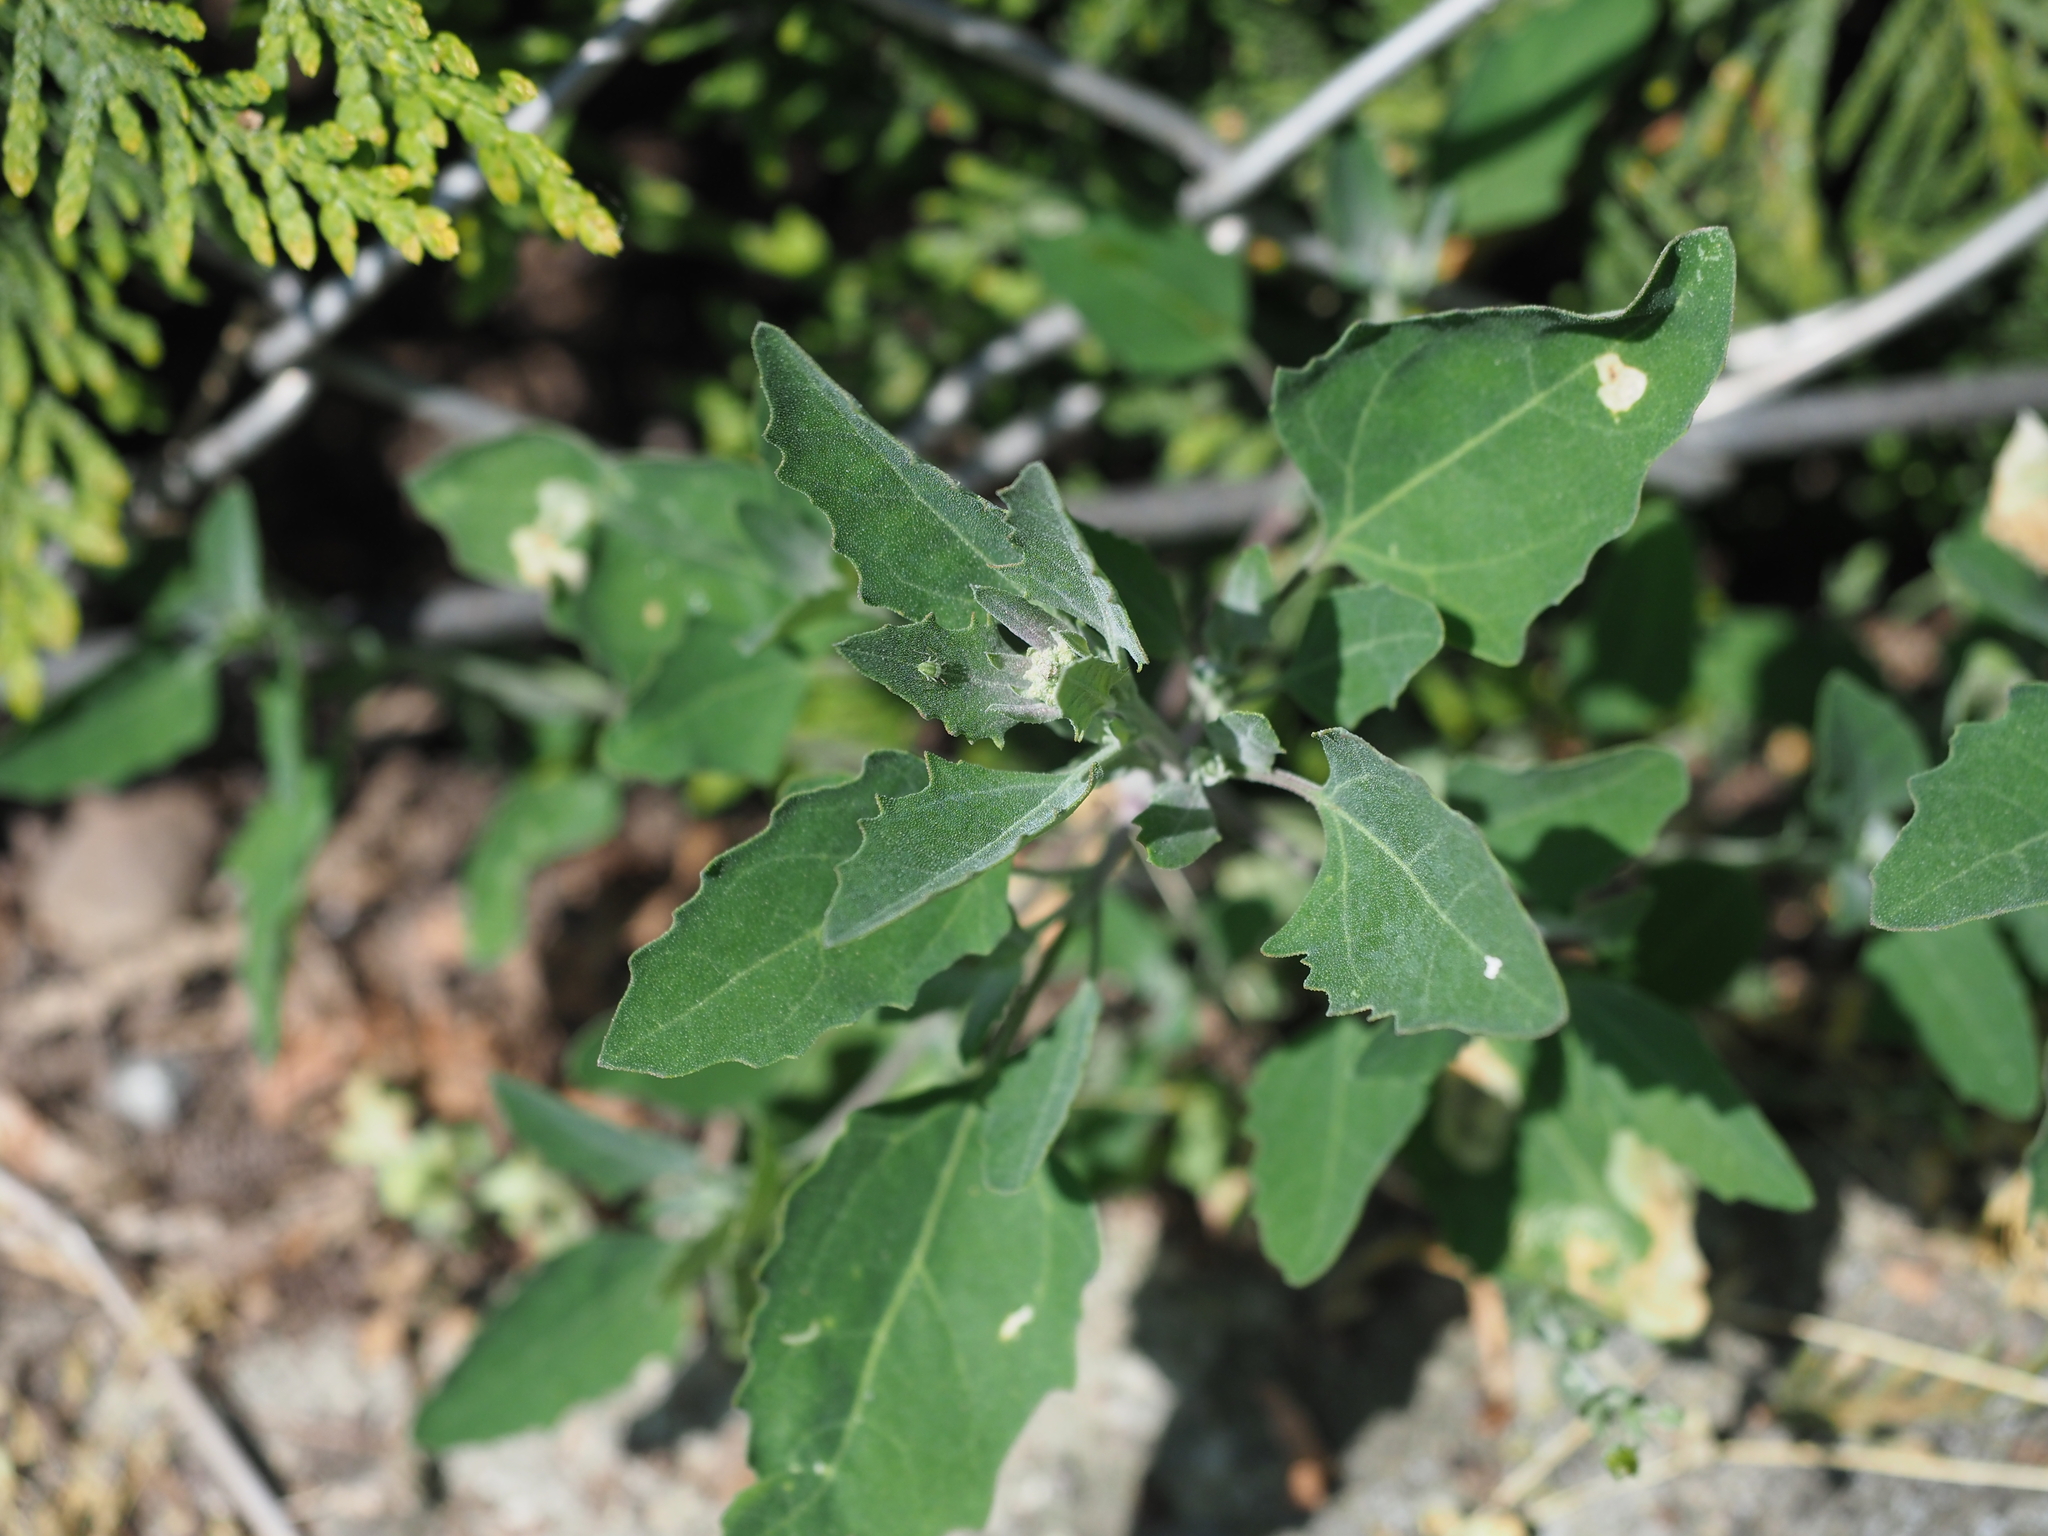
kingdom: Plantae
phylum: Tracheophyta
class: Magnoliopsida
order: Caryophyllales
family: Amaranthaceae
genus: Chenopodium
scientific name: Chenopodium album
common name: Fat-hen
